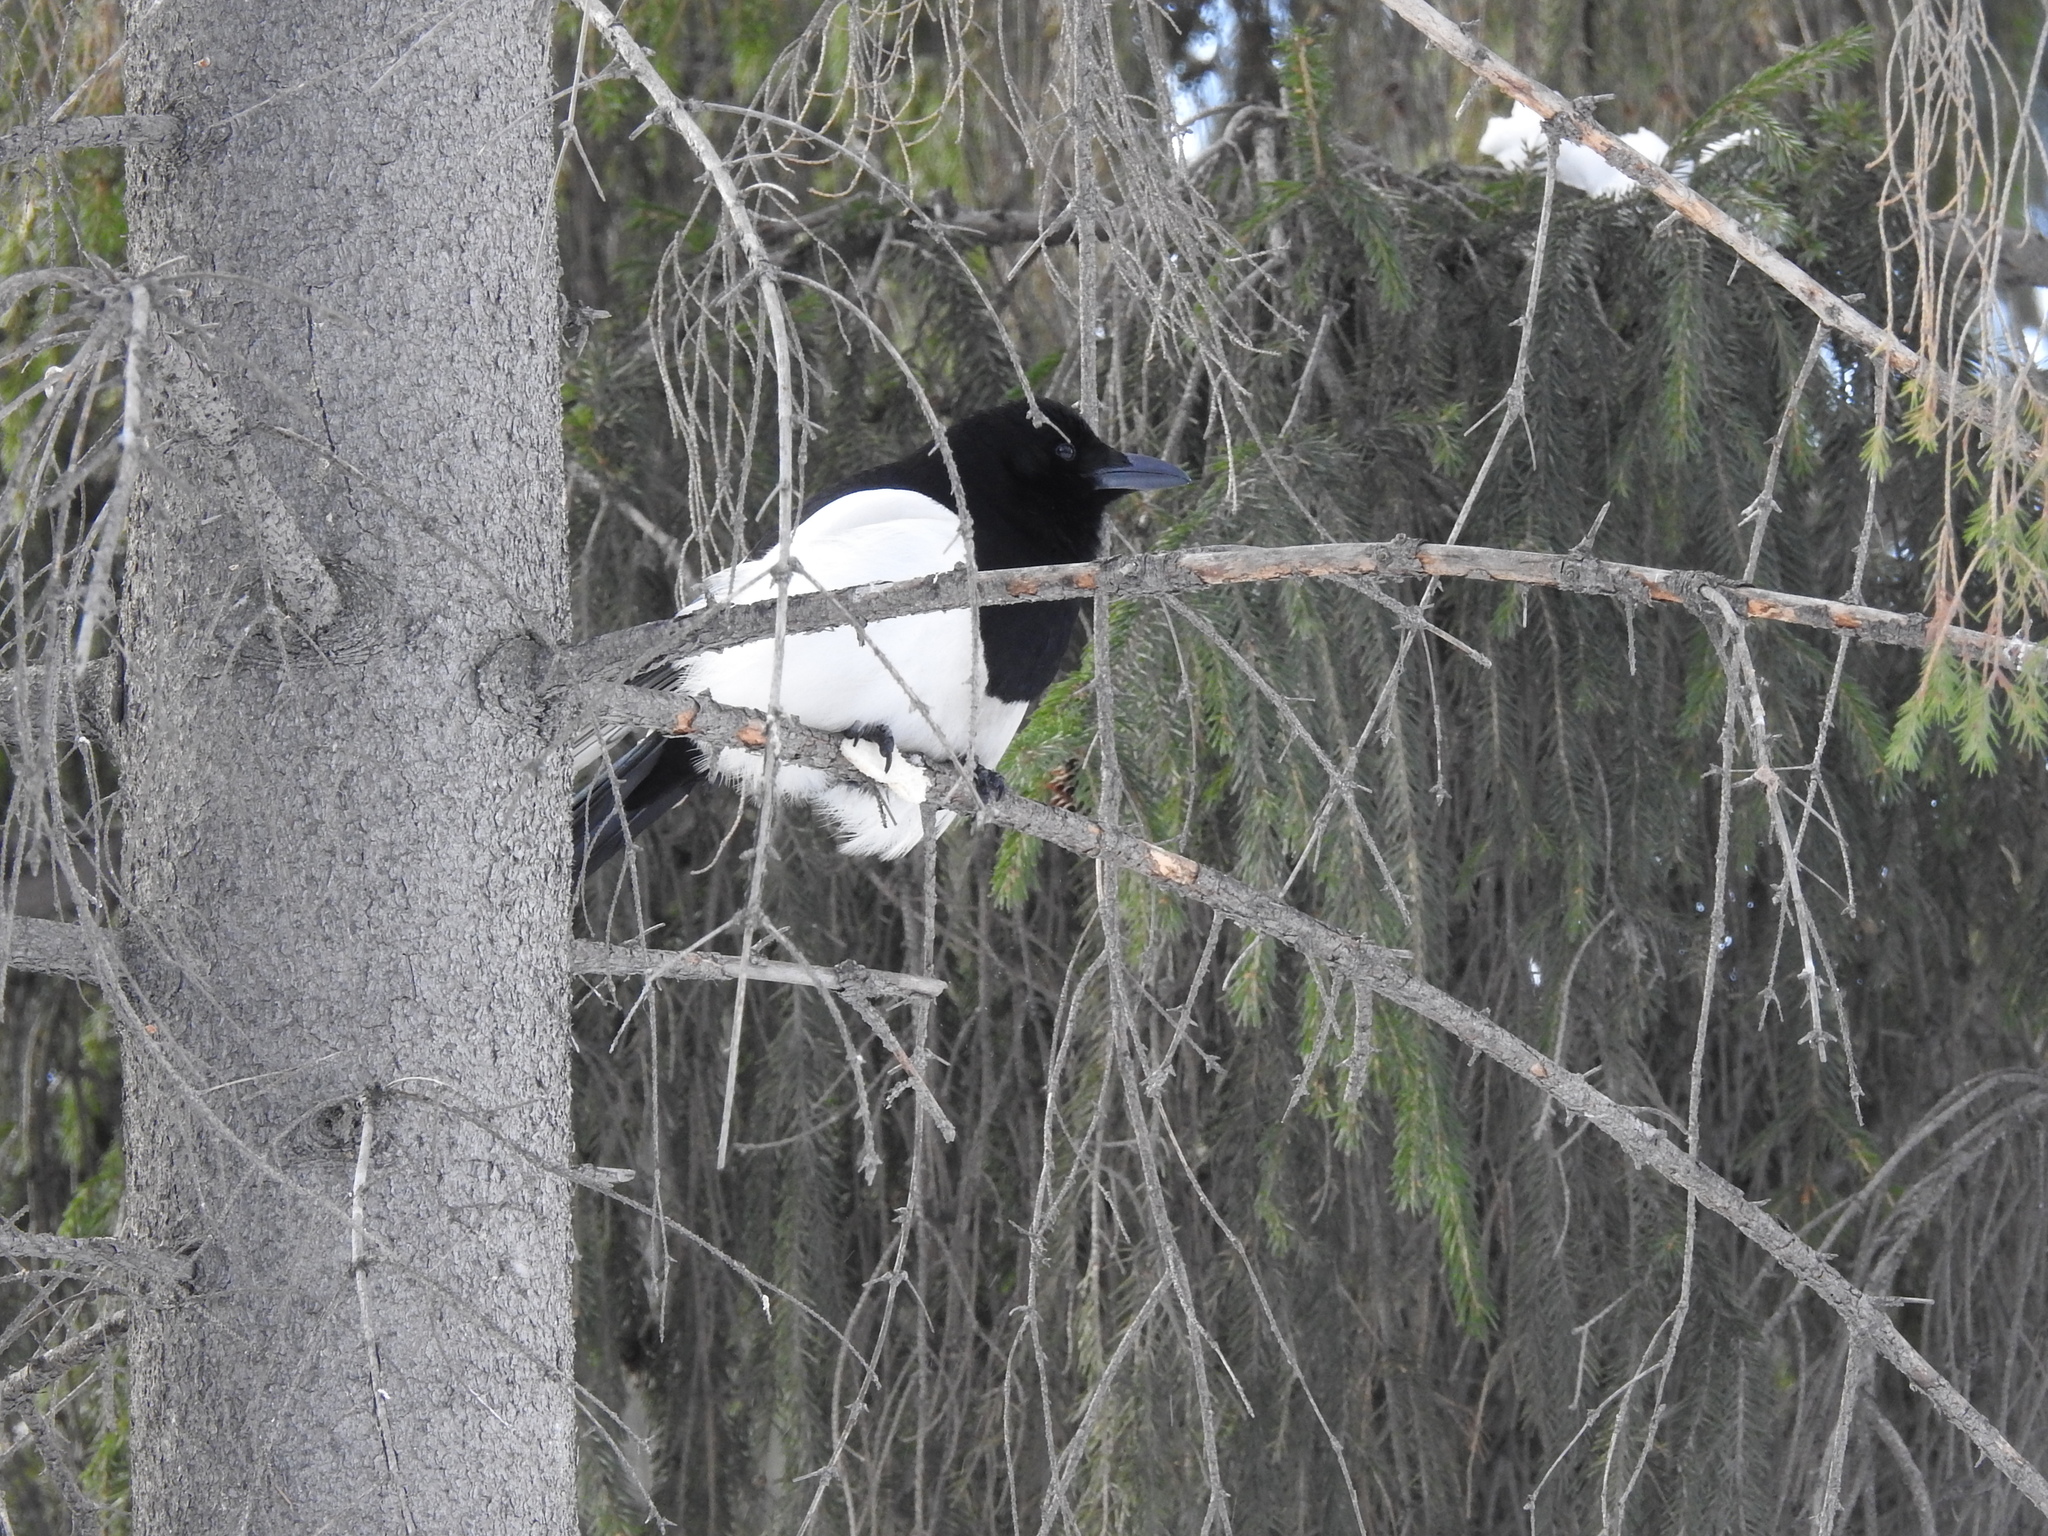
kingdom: Animalia
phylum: Chordata
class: Aves
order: Passeriformes
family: Corvidae
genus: Pica
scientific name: Pica pica
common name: Eurasian magpie
